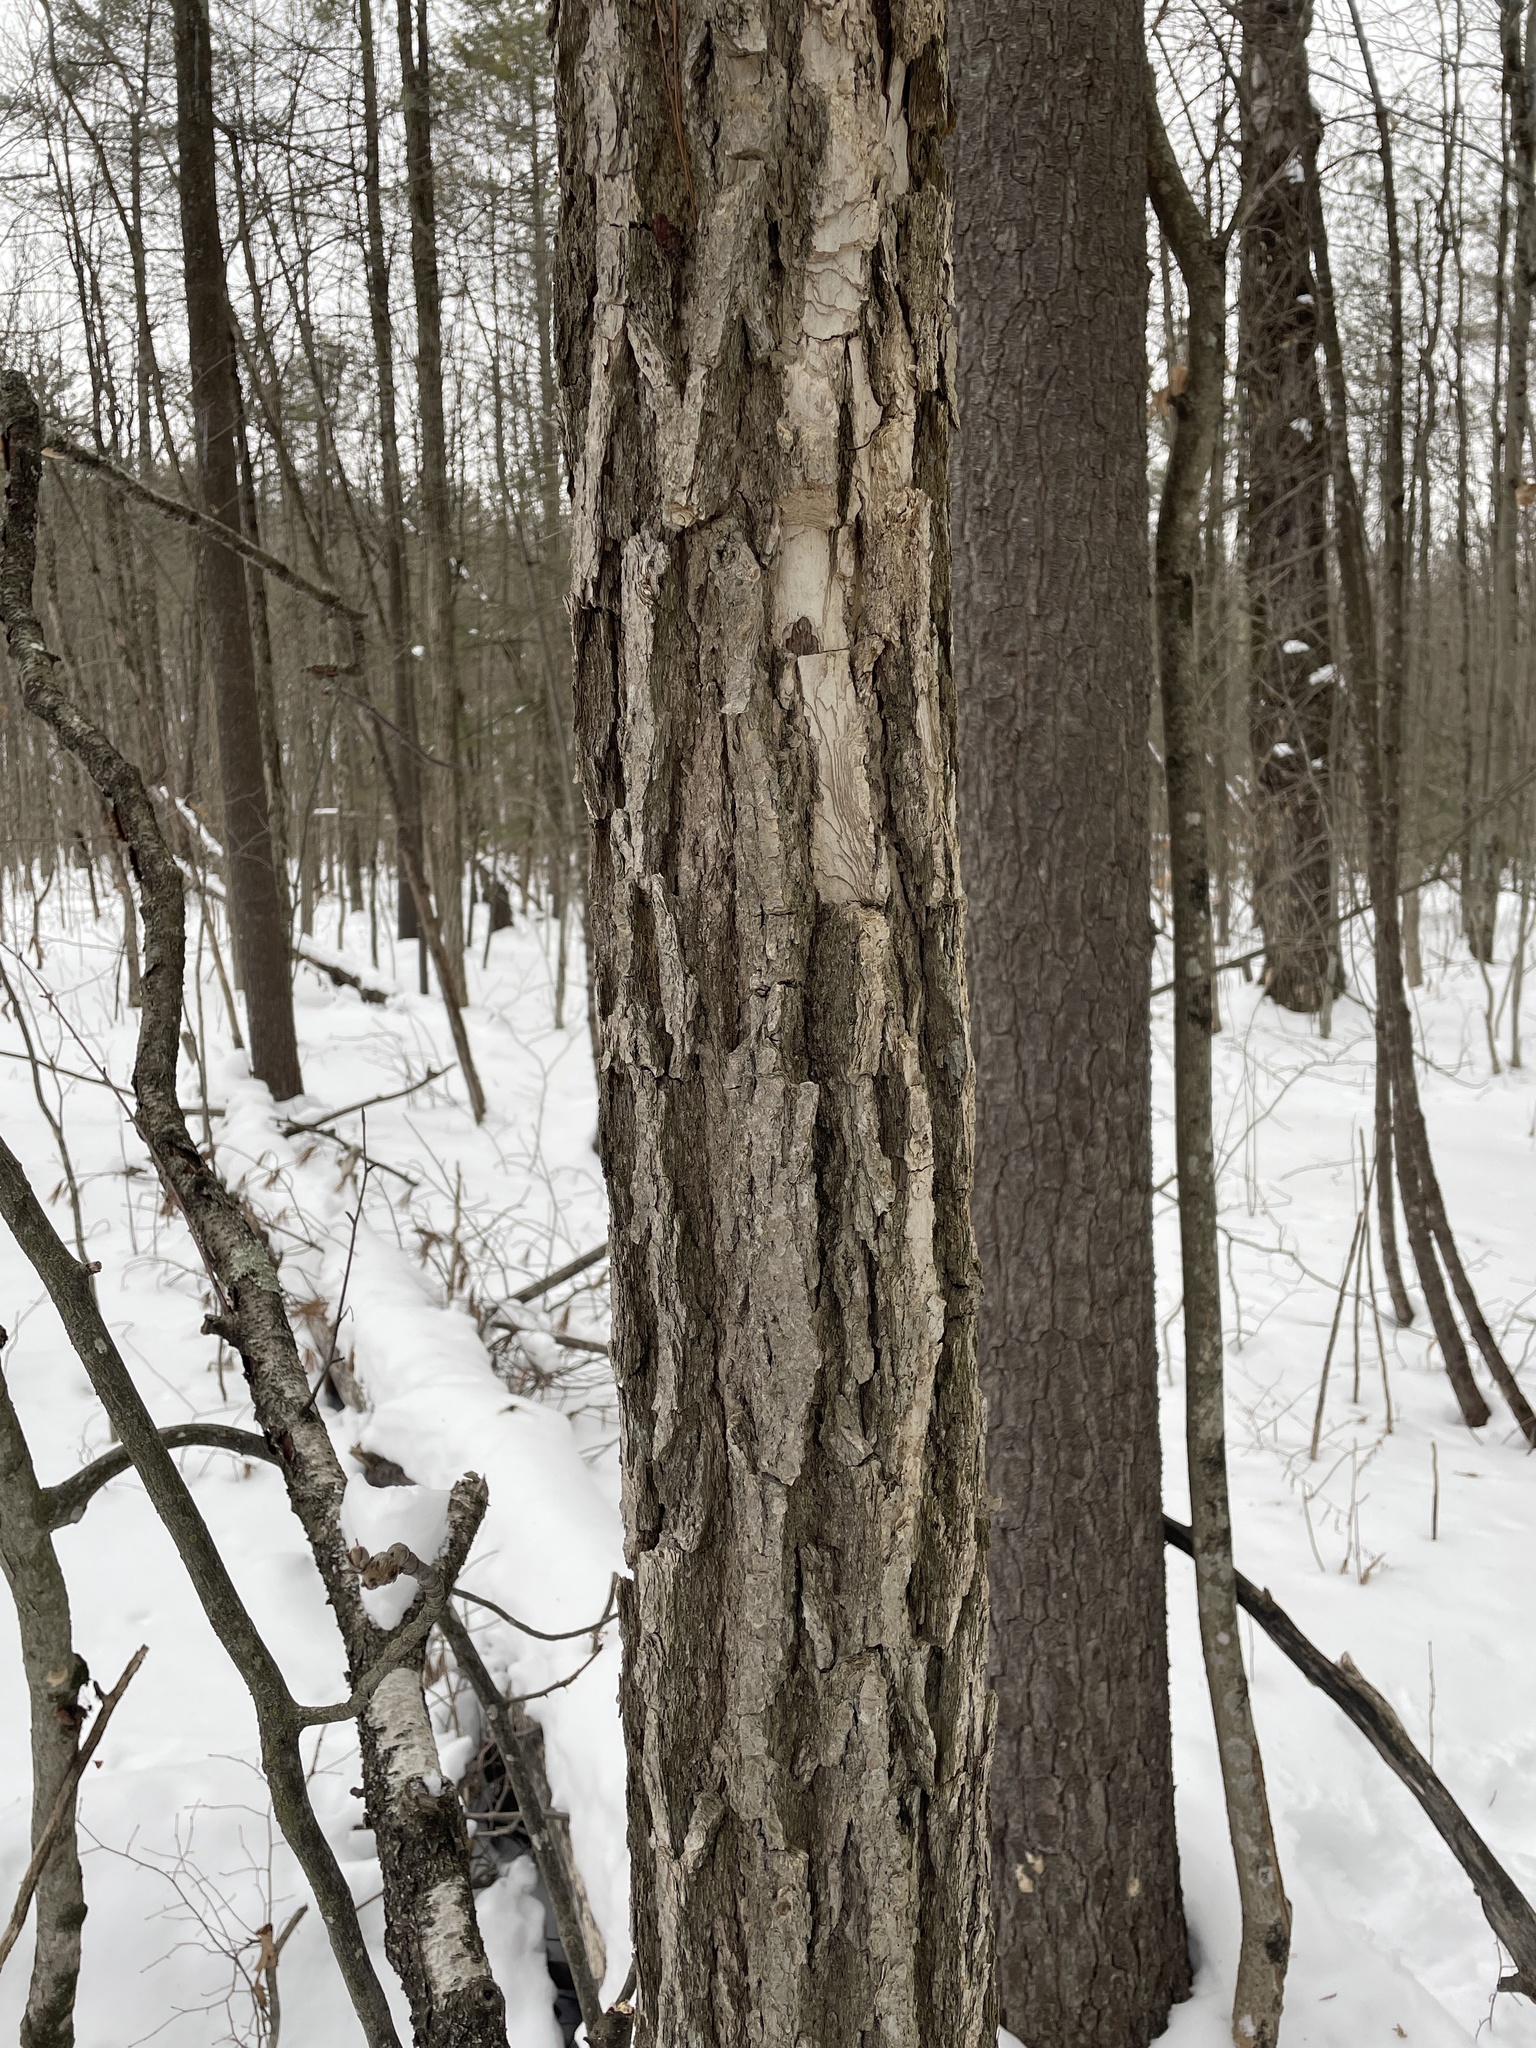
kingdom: Plantae
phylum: Tracheophyta
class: Magnoliopsida
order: Fagales
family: Fagaceae
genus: Quercus
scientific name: Quercus montana
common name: Chestnut oak
